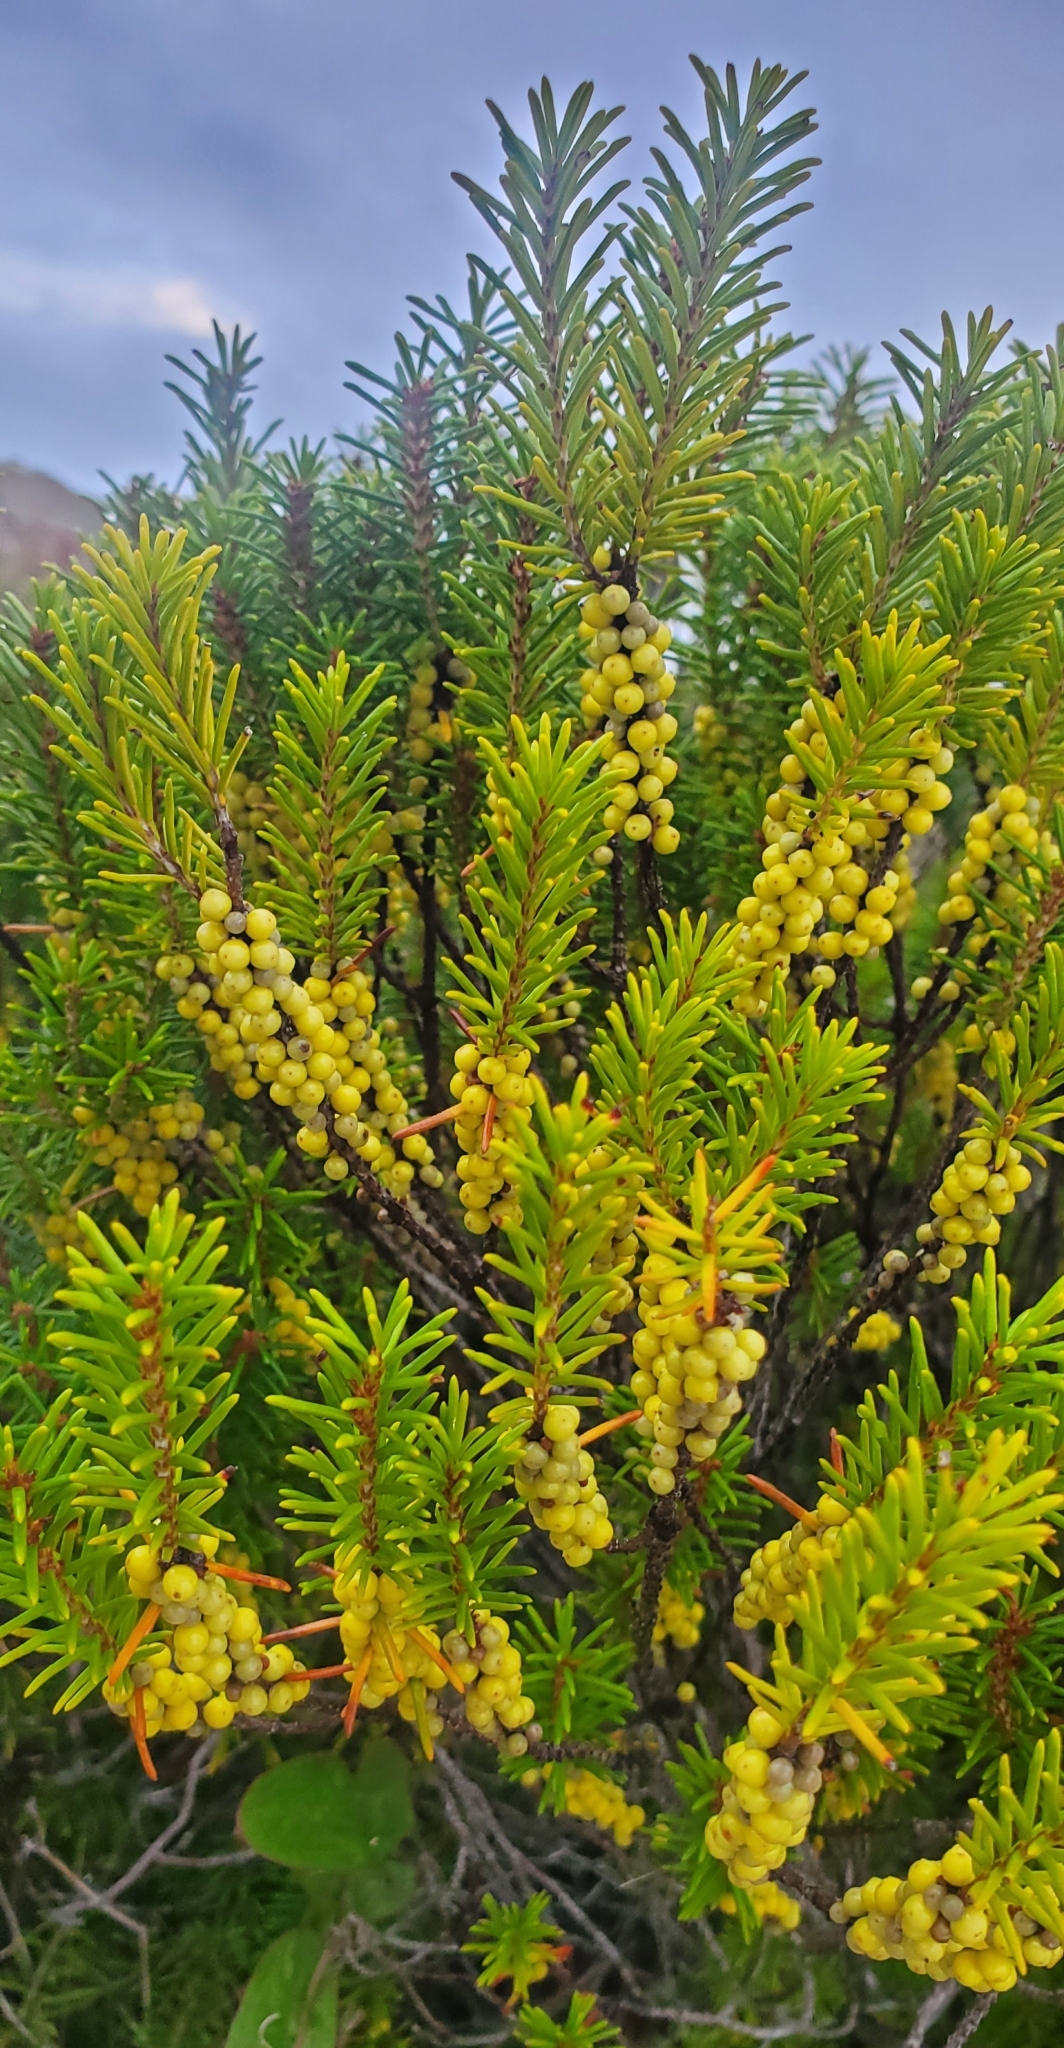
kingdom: Plantae
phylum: Tracheophyta
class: Magnoliopsida
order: Ericales
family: Ericaceae
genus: Ceratiola
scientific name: Ceratiola ericoides
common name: Sandhill-rosemary
